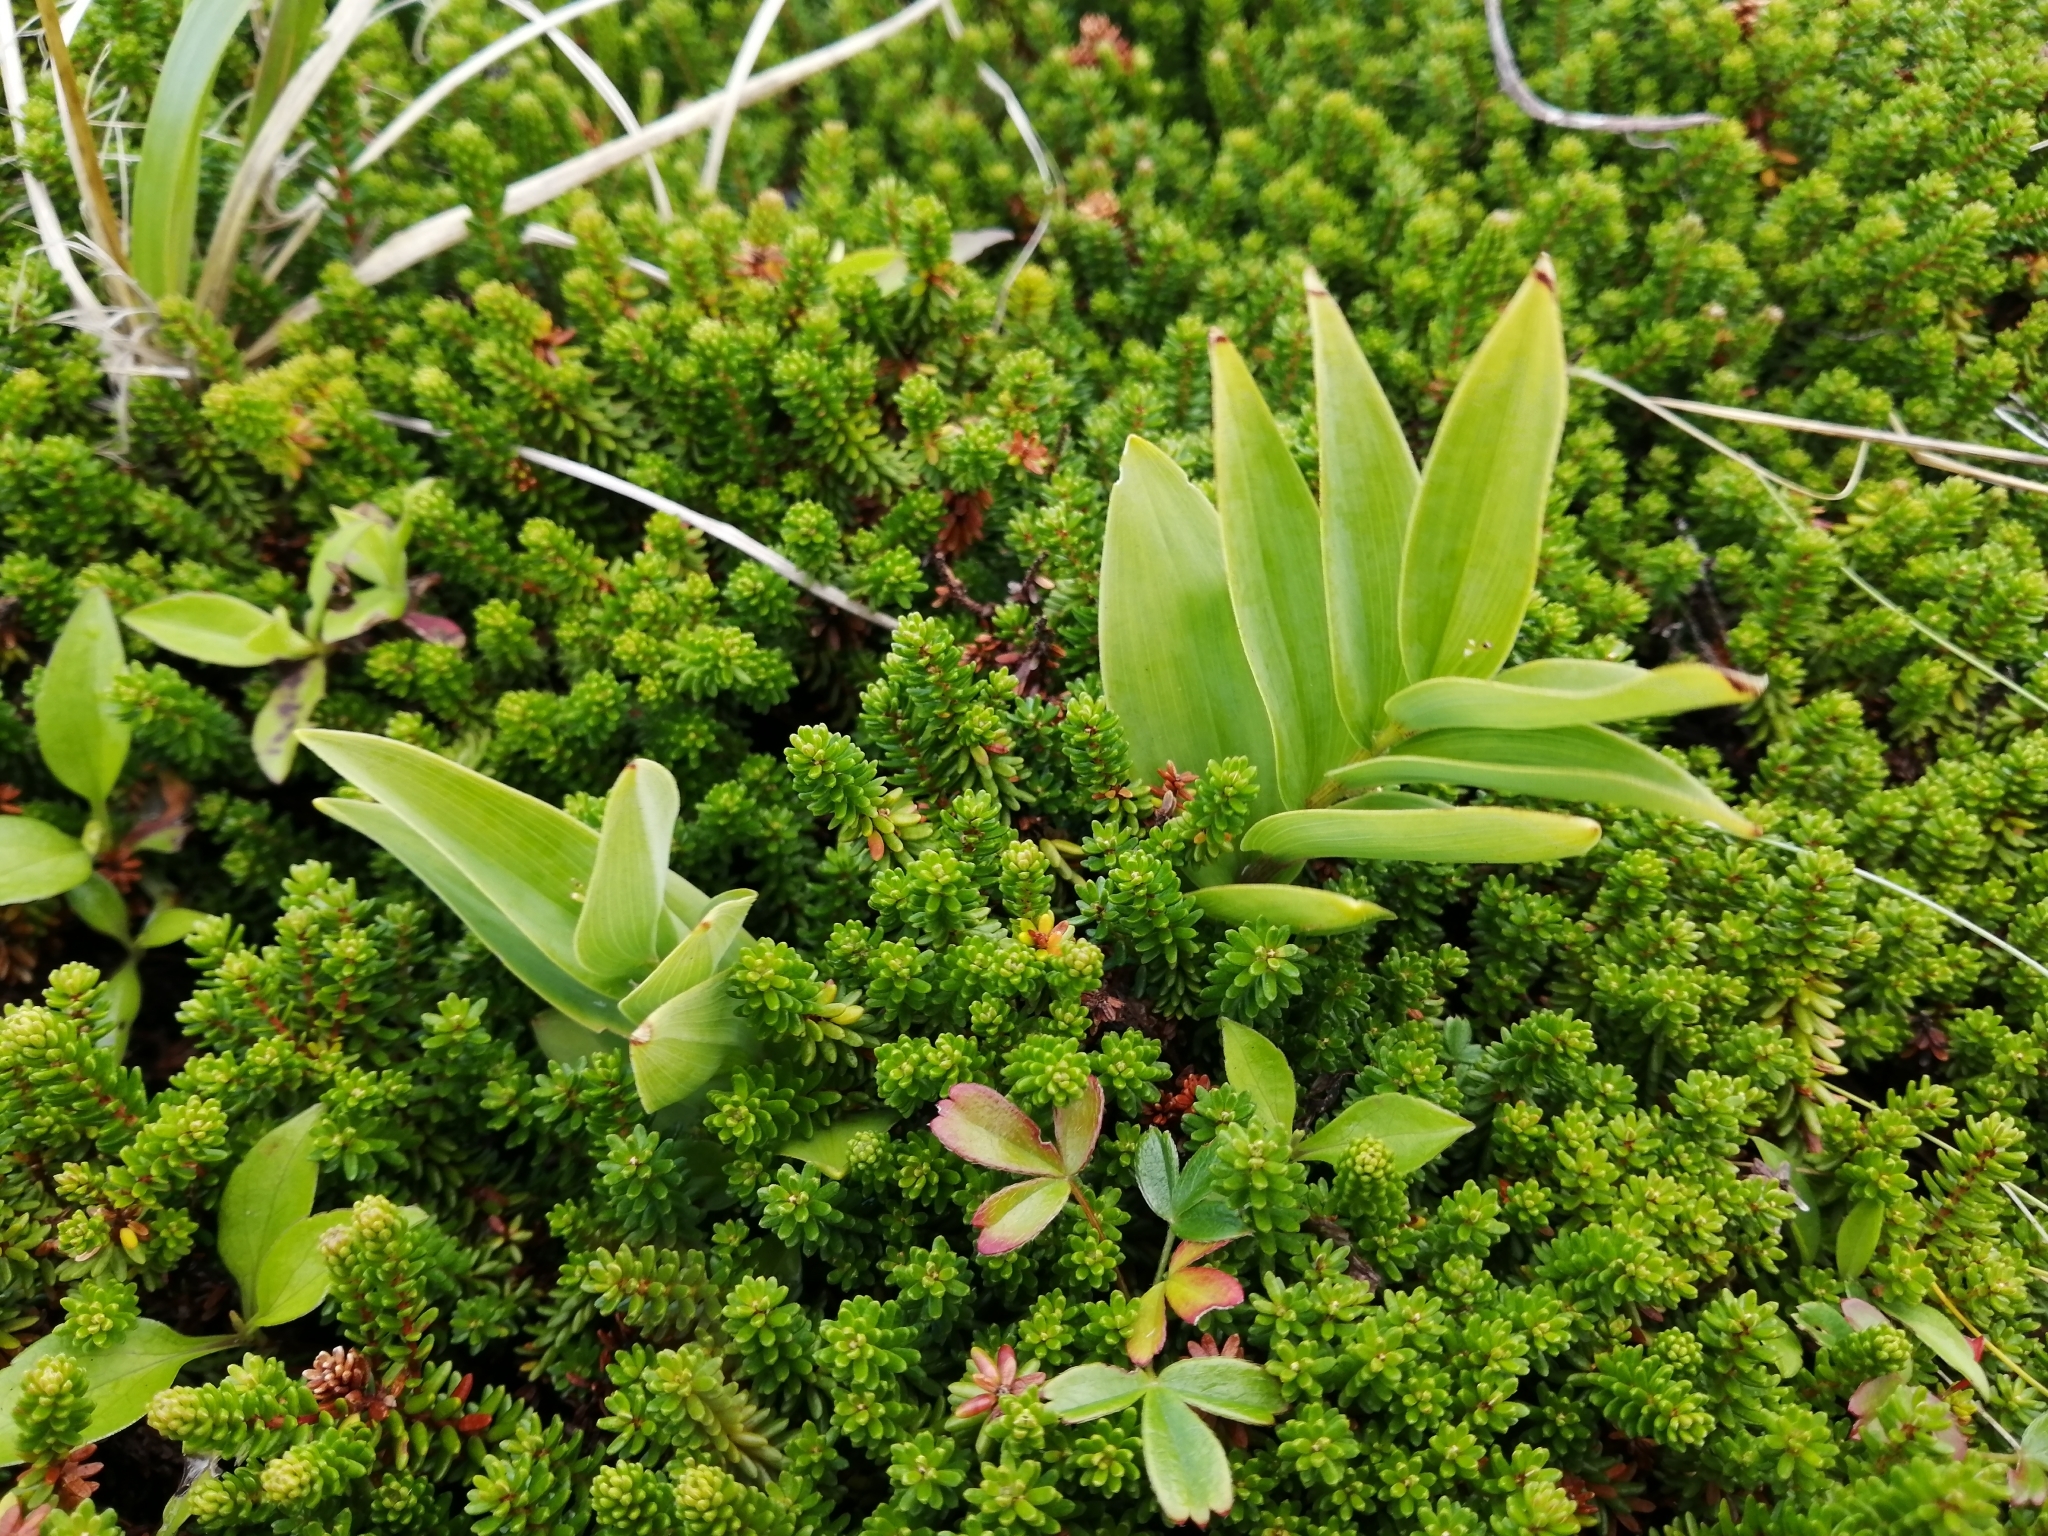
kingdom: Plantae
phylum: Tracheophyta
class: Liliopsida
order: Asparagales
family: Asparagaceae
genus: Maianthemum
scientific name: Maianthemum stellatum
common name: Little false solomon's seal
